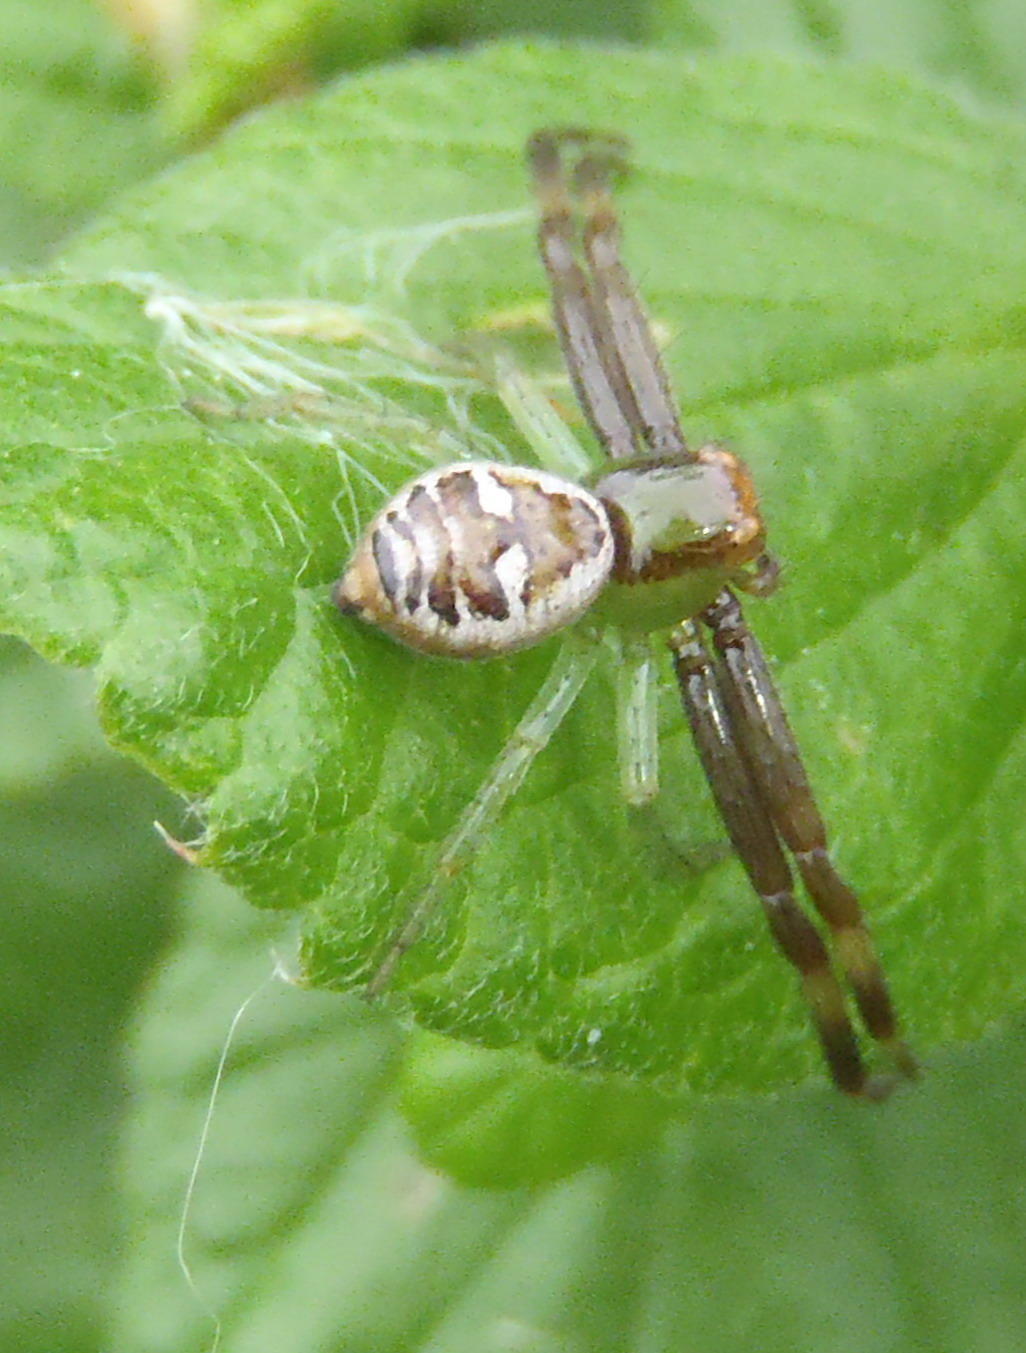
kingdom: Animalia
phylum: Arthropoda
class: Arachnida
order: Araneae
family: Thomisidae
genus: Synema
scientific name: Synema imitatrix
